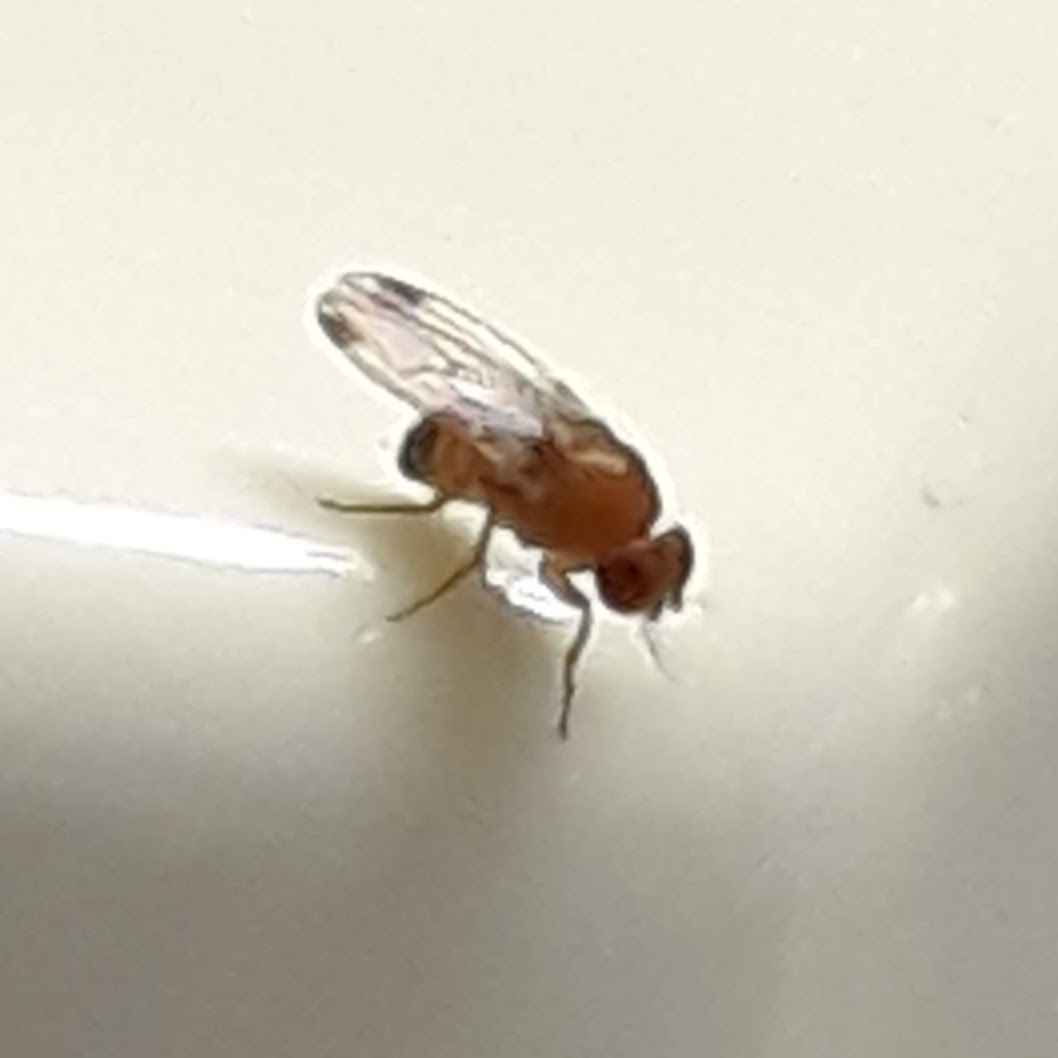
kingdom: Animalia
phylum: Arthropoda
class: Insecta
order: Diptera
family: Drosophilidae
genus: Drosophila
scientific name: Drosophila suzukii
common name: Spotted-wing drosophila
